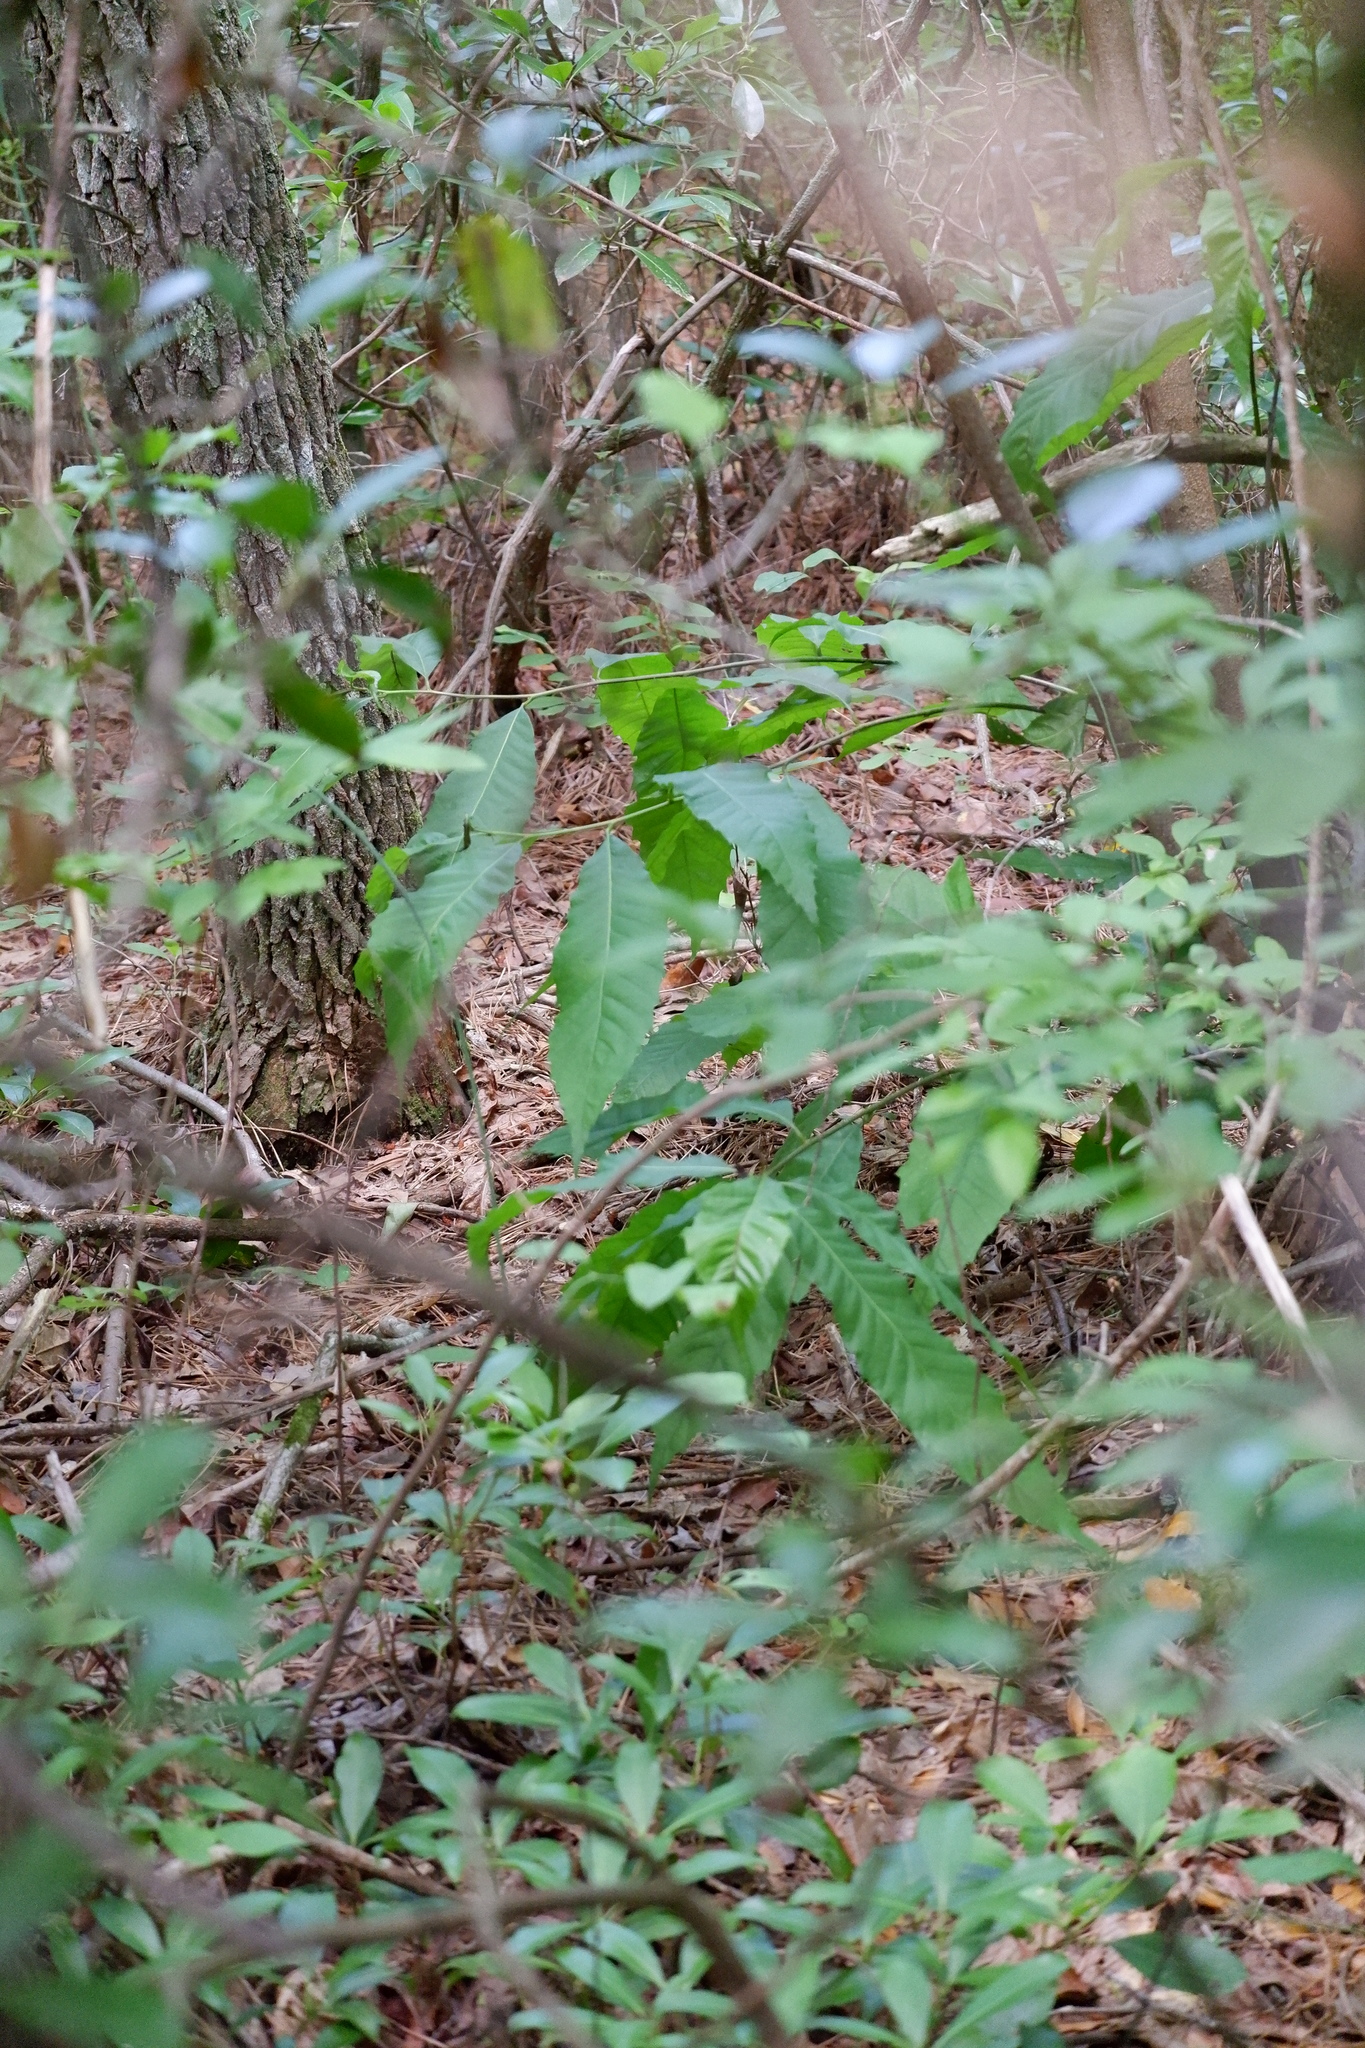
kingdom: Plantae
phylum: Tracheophyta
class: Magnoliopsida
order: Fagales
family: Fagaceae
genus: Castanea
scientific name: Castanea dentata
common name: American chestnut
